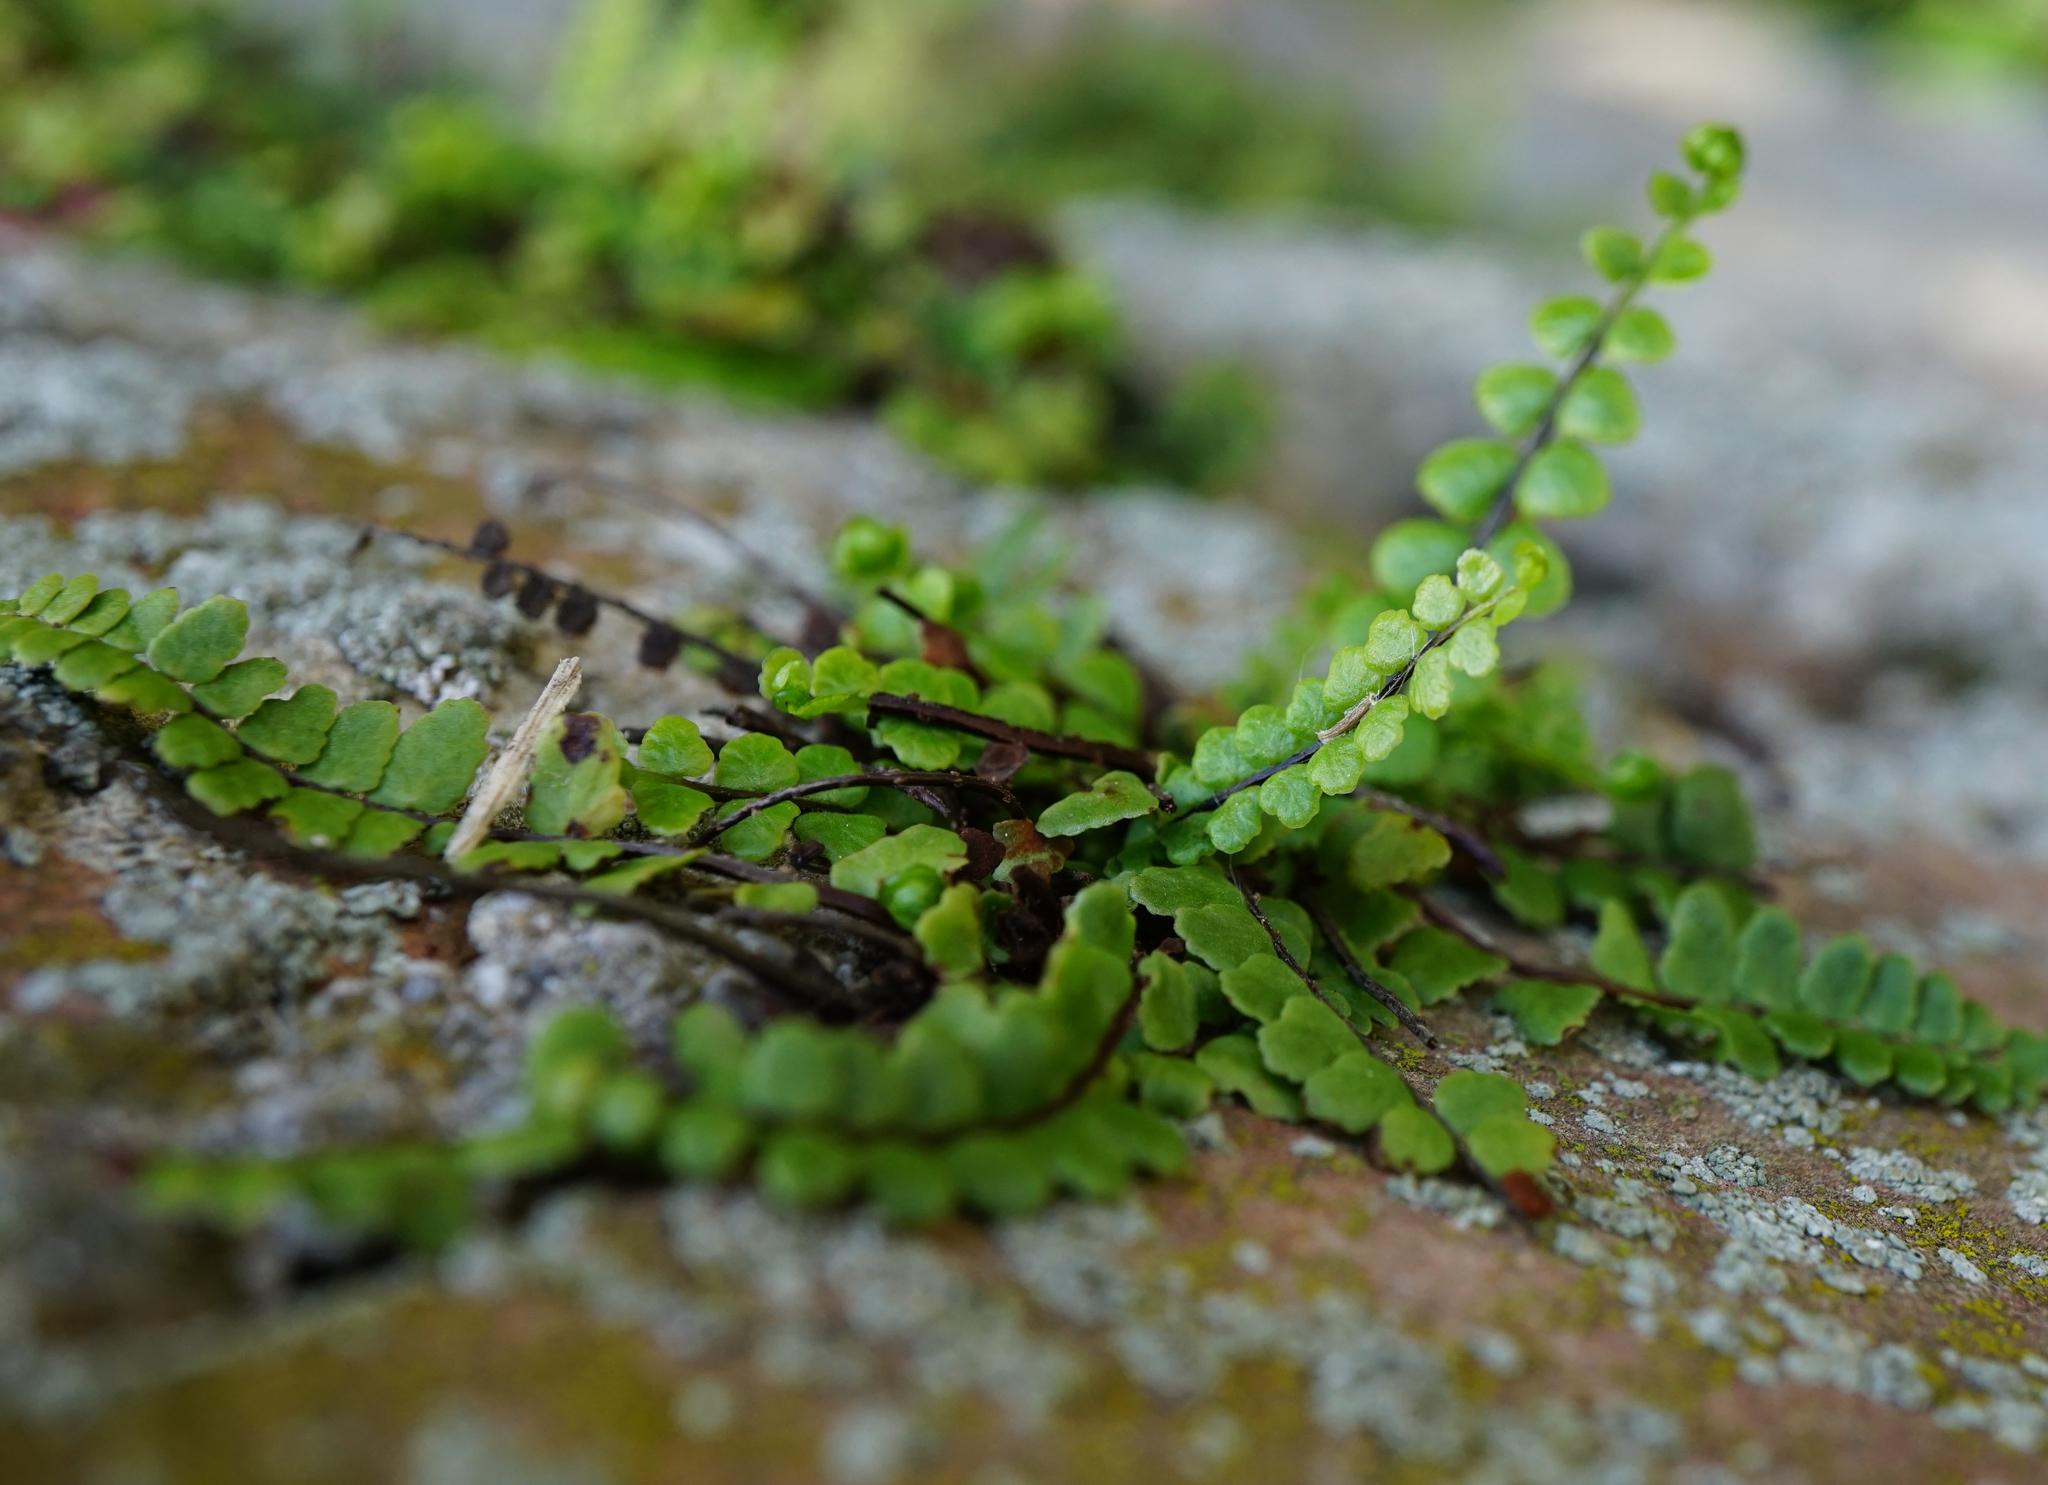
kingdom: Plantae
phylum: Tracheophyta
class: Polypodiopsida
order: Polypodiales
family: Aspleniaceae
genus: Asplenium
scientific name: Asplenium trichomanes
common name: Maidenhair spleenwort
